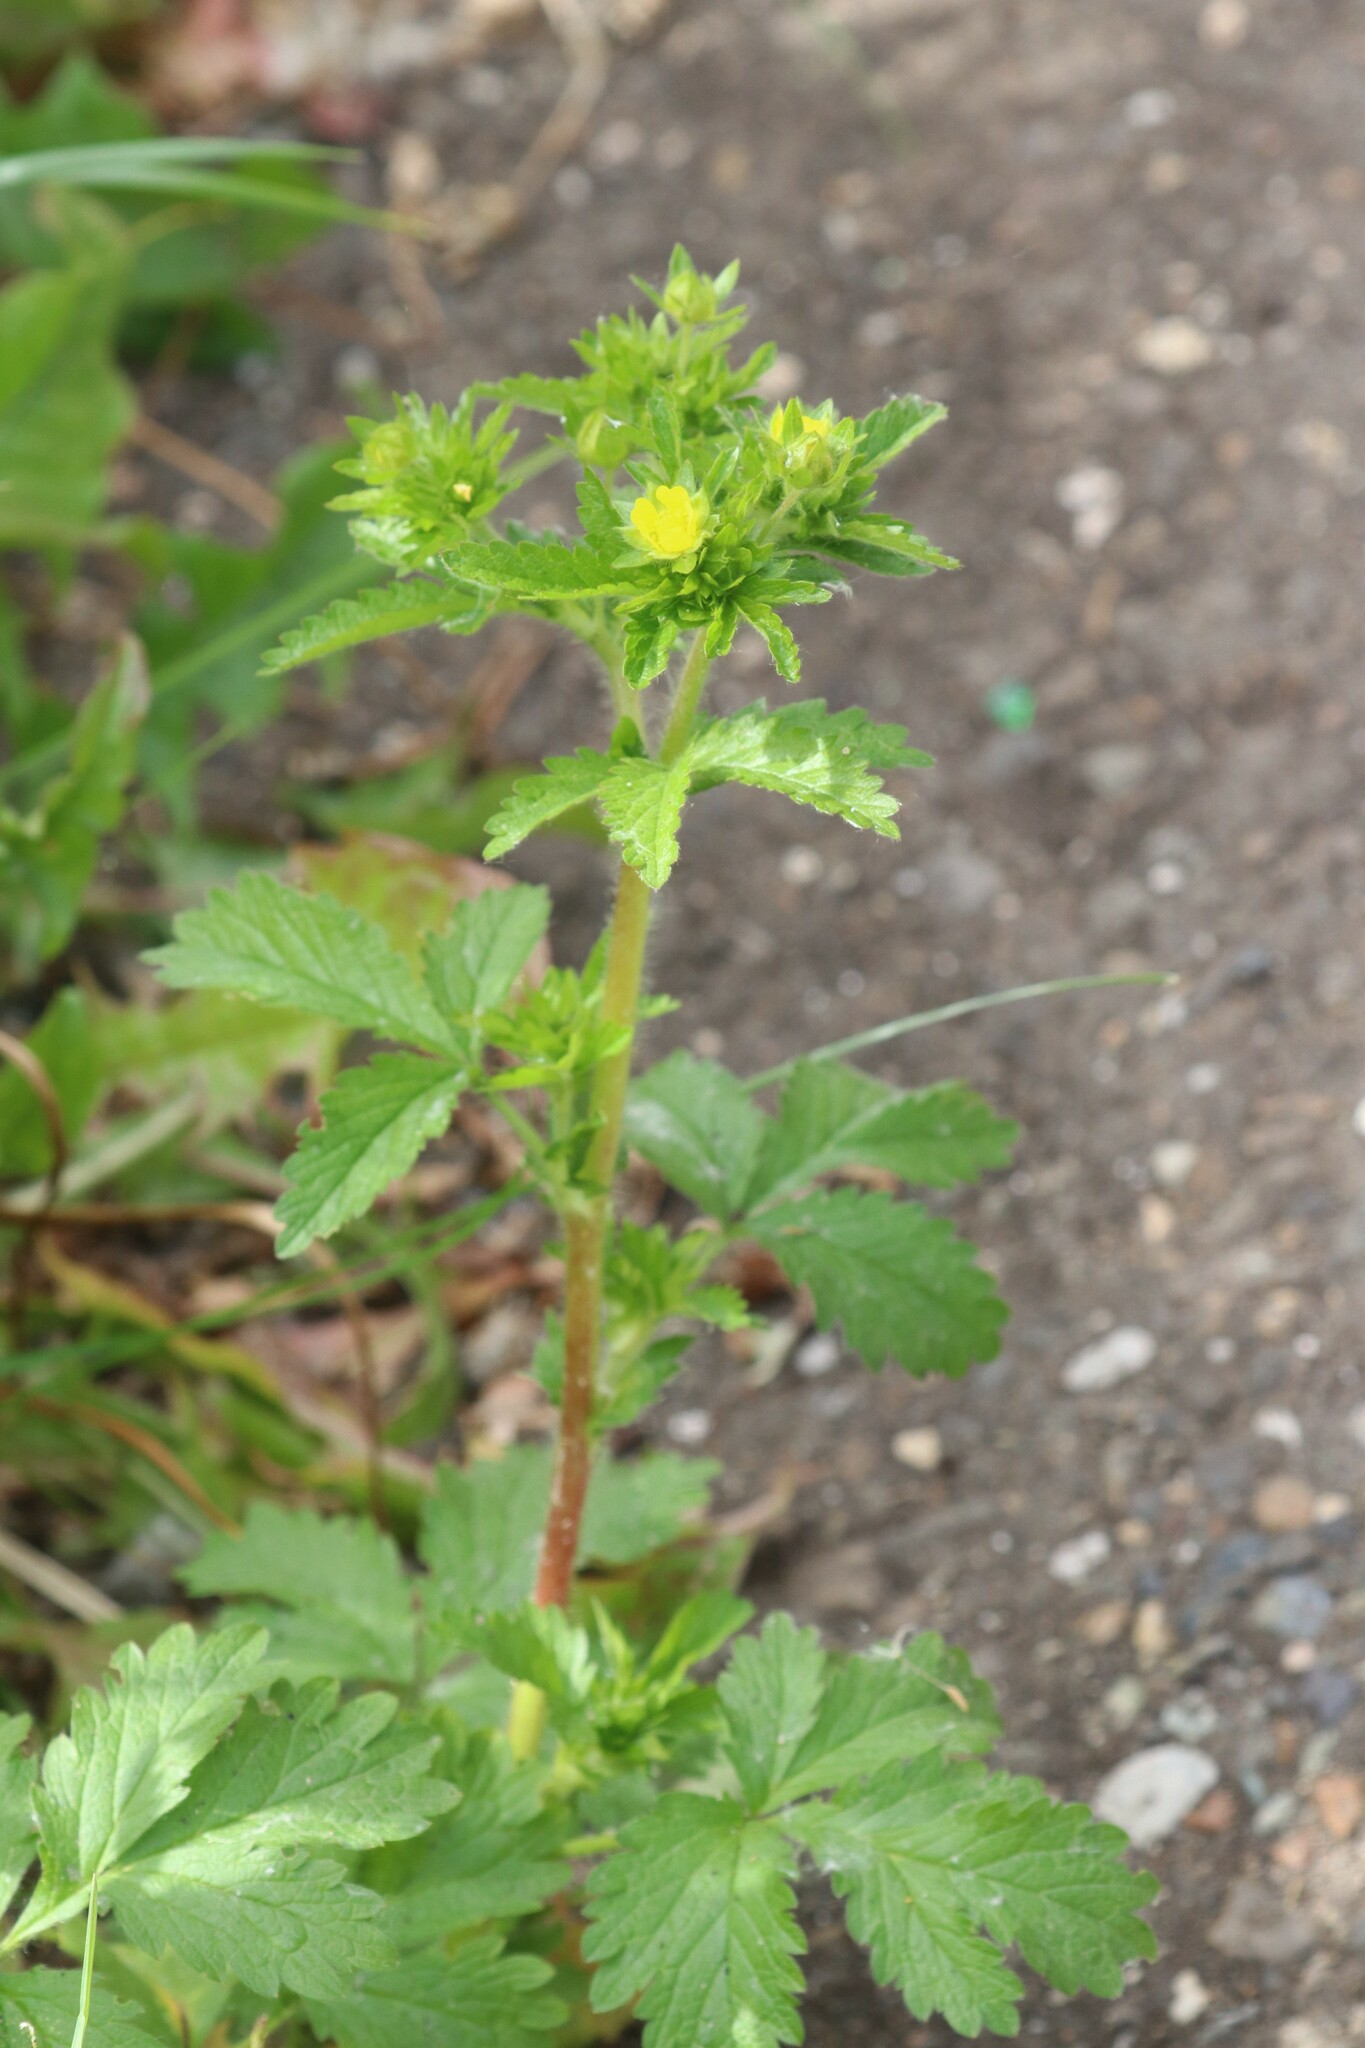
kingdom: Plantae
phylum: Tracheophyta
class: Magnoliopsida
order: Rosales
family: Rosaceae
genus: Potentilla
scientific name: Potentilla norvegica
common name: Ternate-leaved cinquefoil
